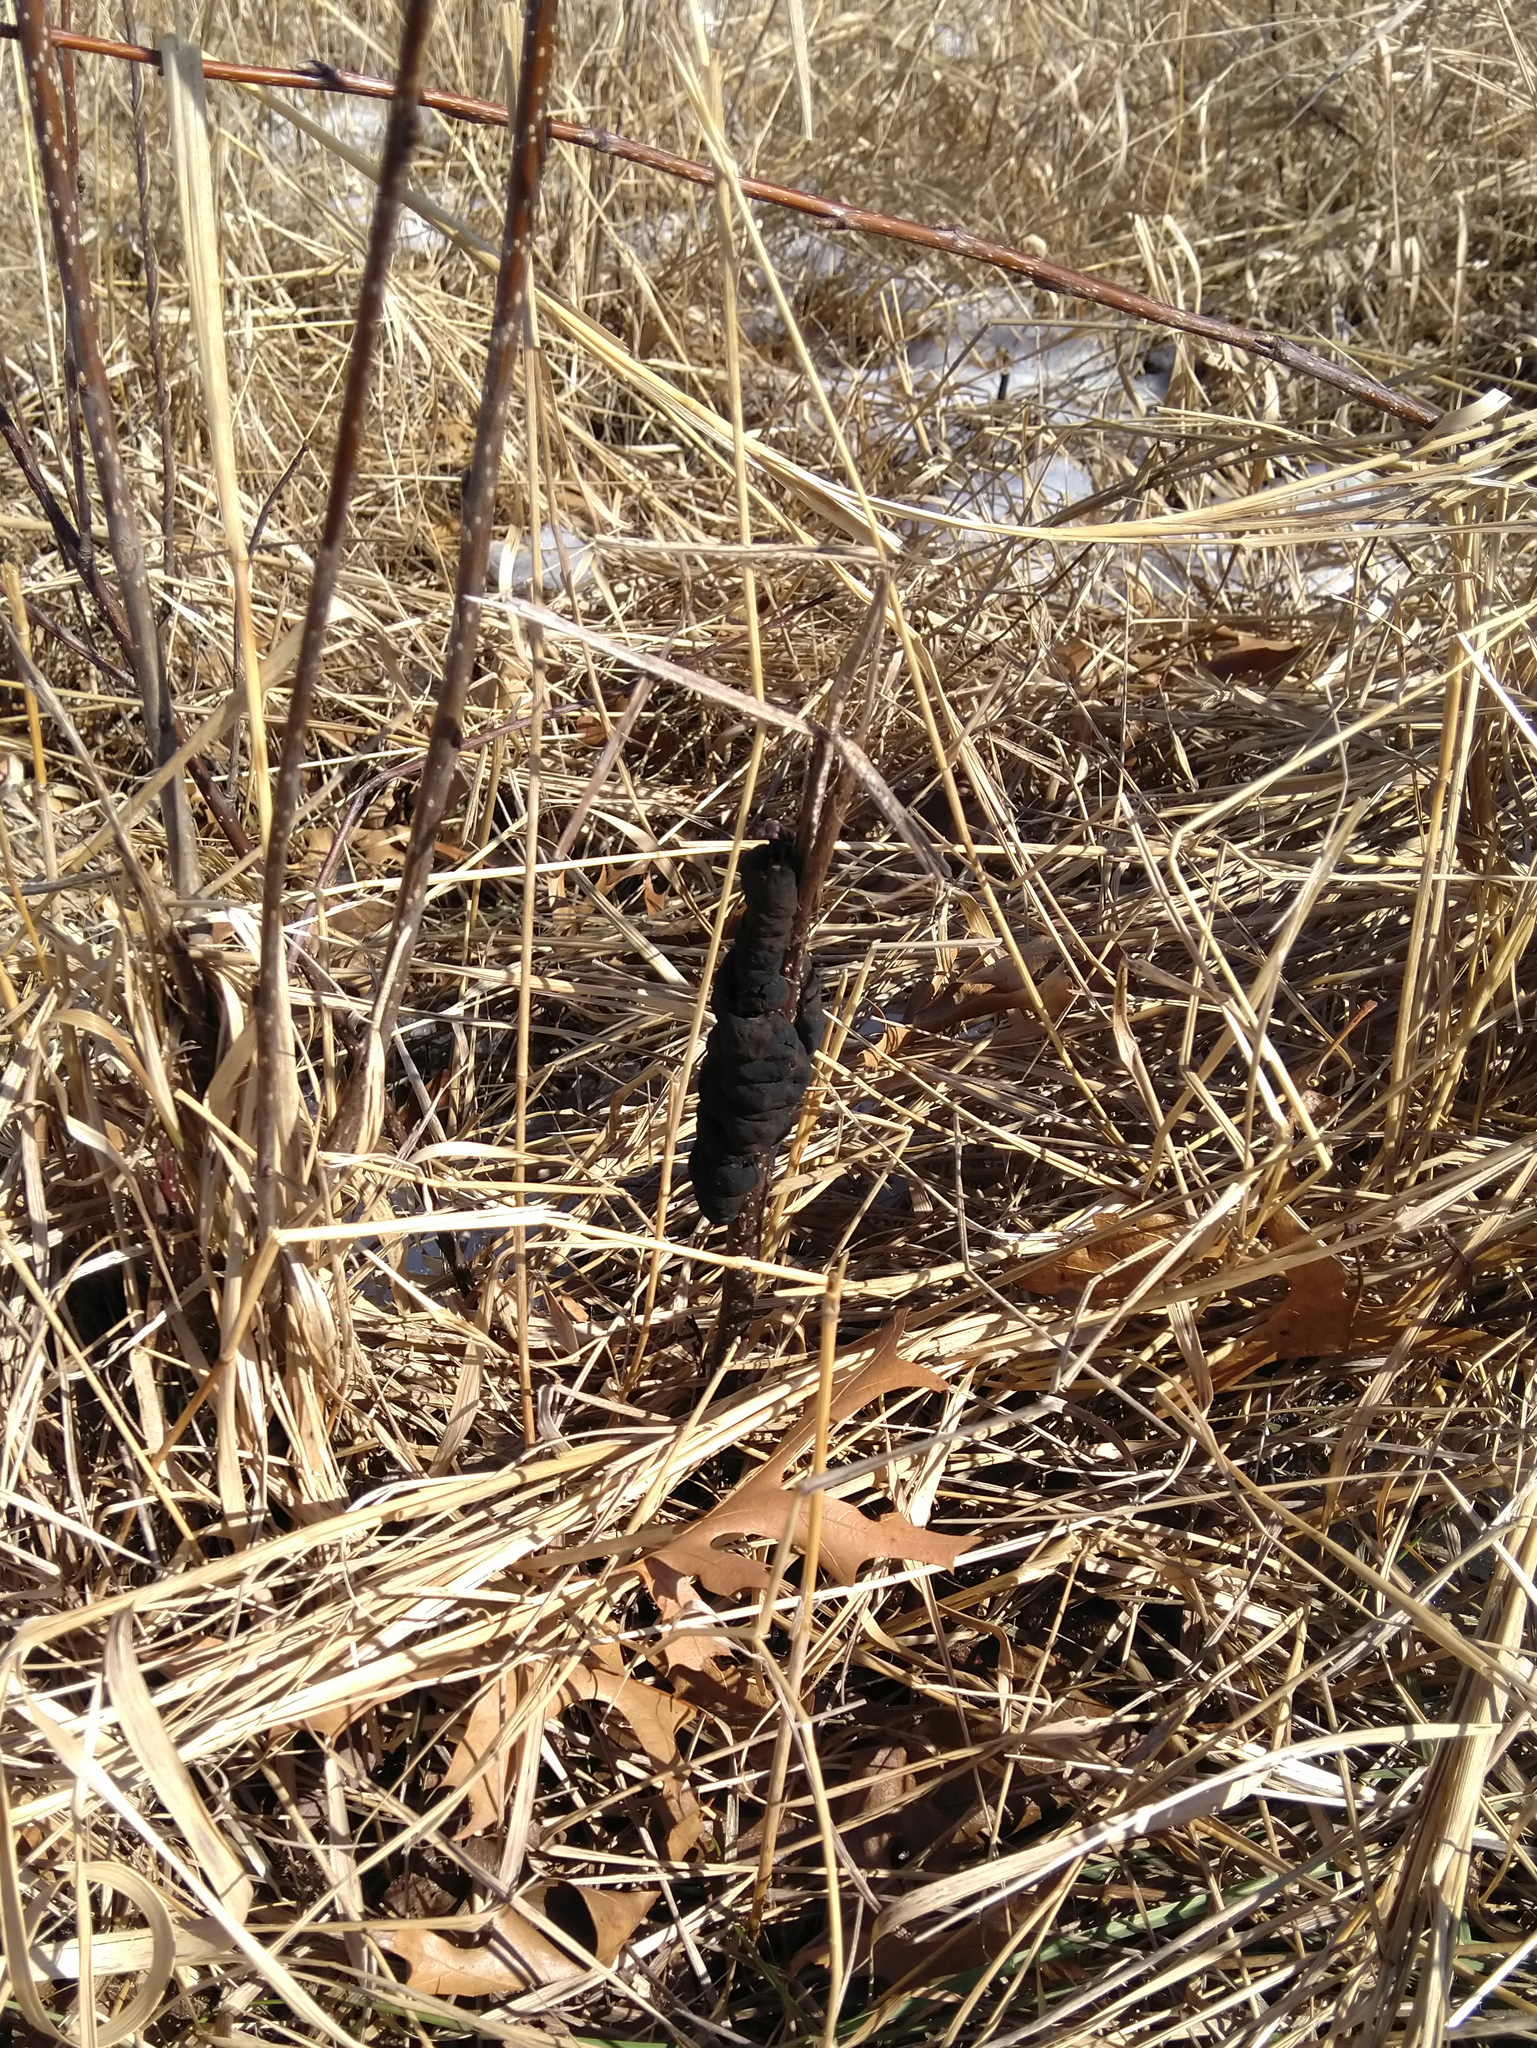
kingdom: Fungi
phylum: Ascomycota
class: Dothideomycetes
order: Venturiales
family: Venturiaceae
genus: Apiosporina
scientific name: Apiosporina morbosa
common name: Black knot
